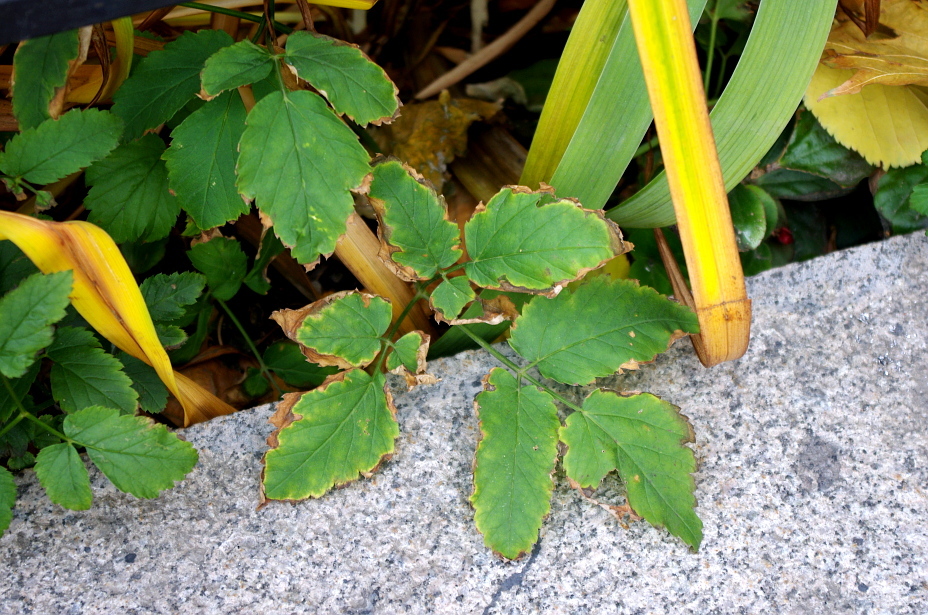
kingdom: Plantae
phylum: Tracheophyta
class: Magnoliopsida
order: Apiales
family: Apiaceae
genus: Aegopodium
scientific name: Aegopodium podagraria
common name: Ground-elder
